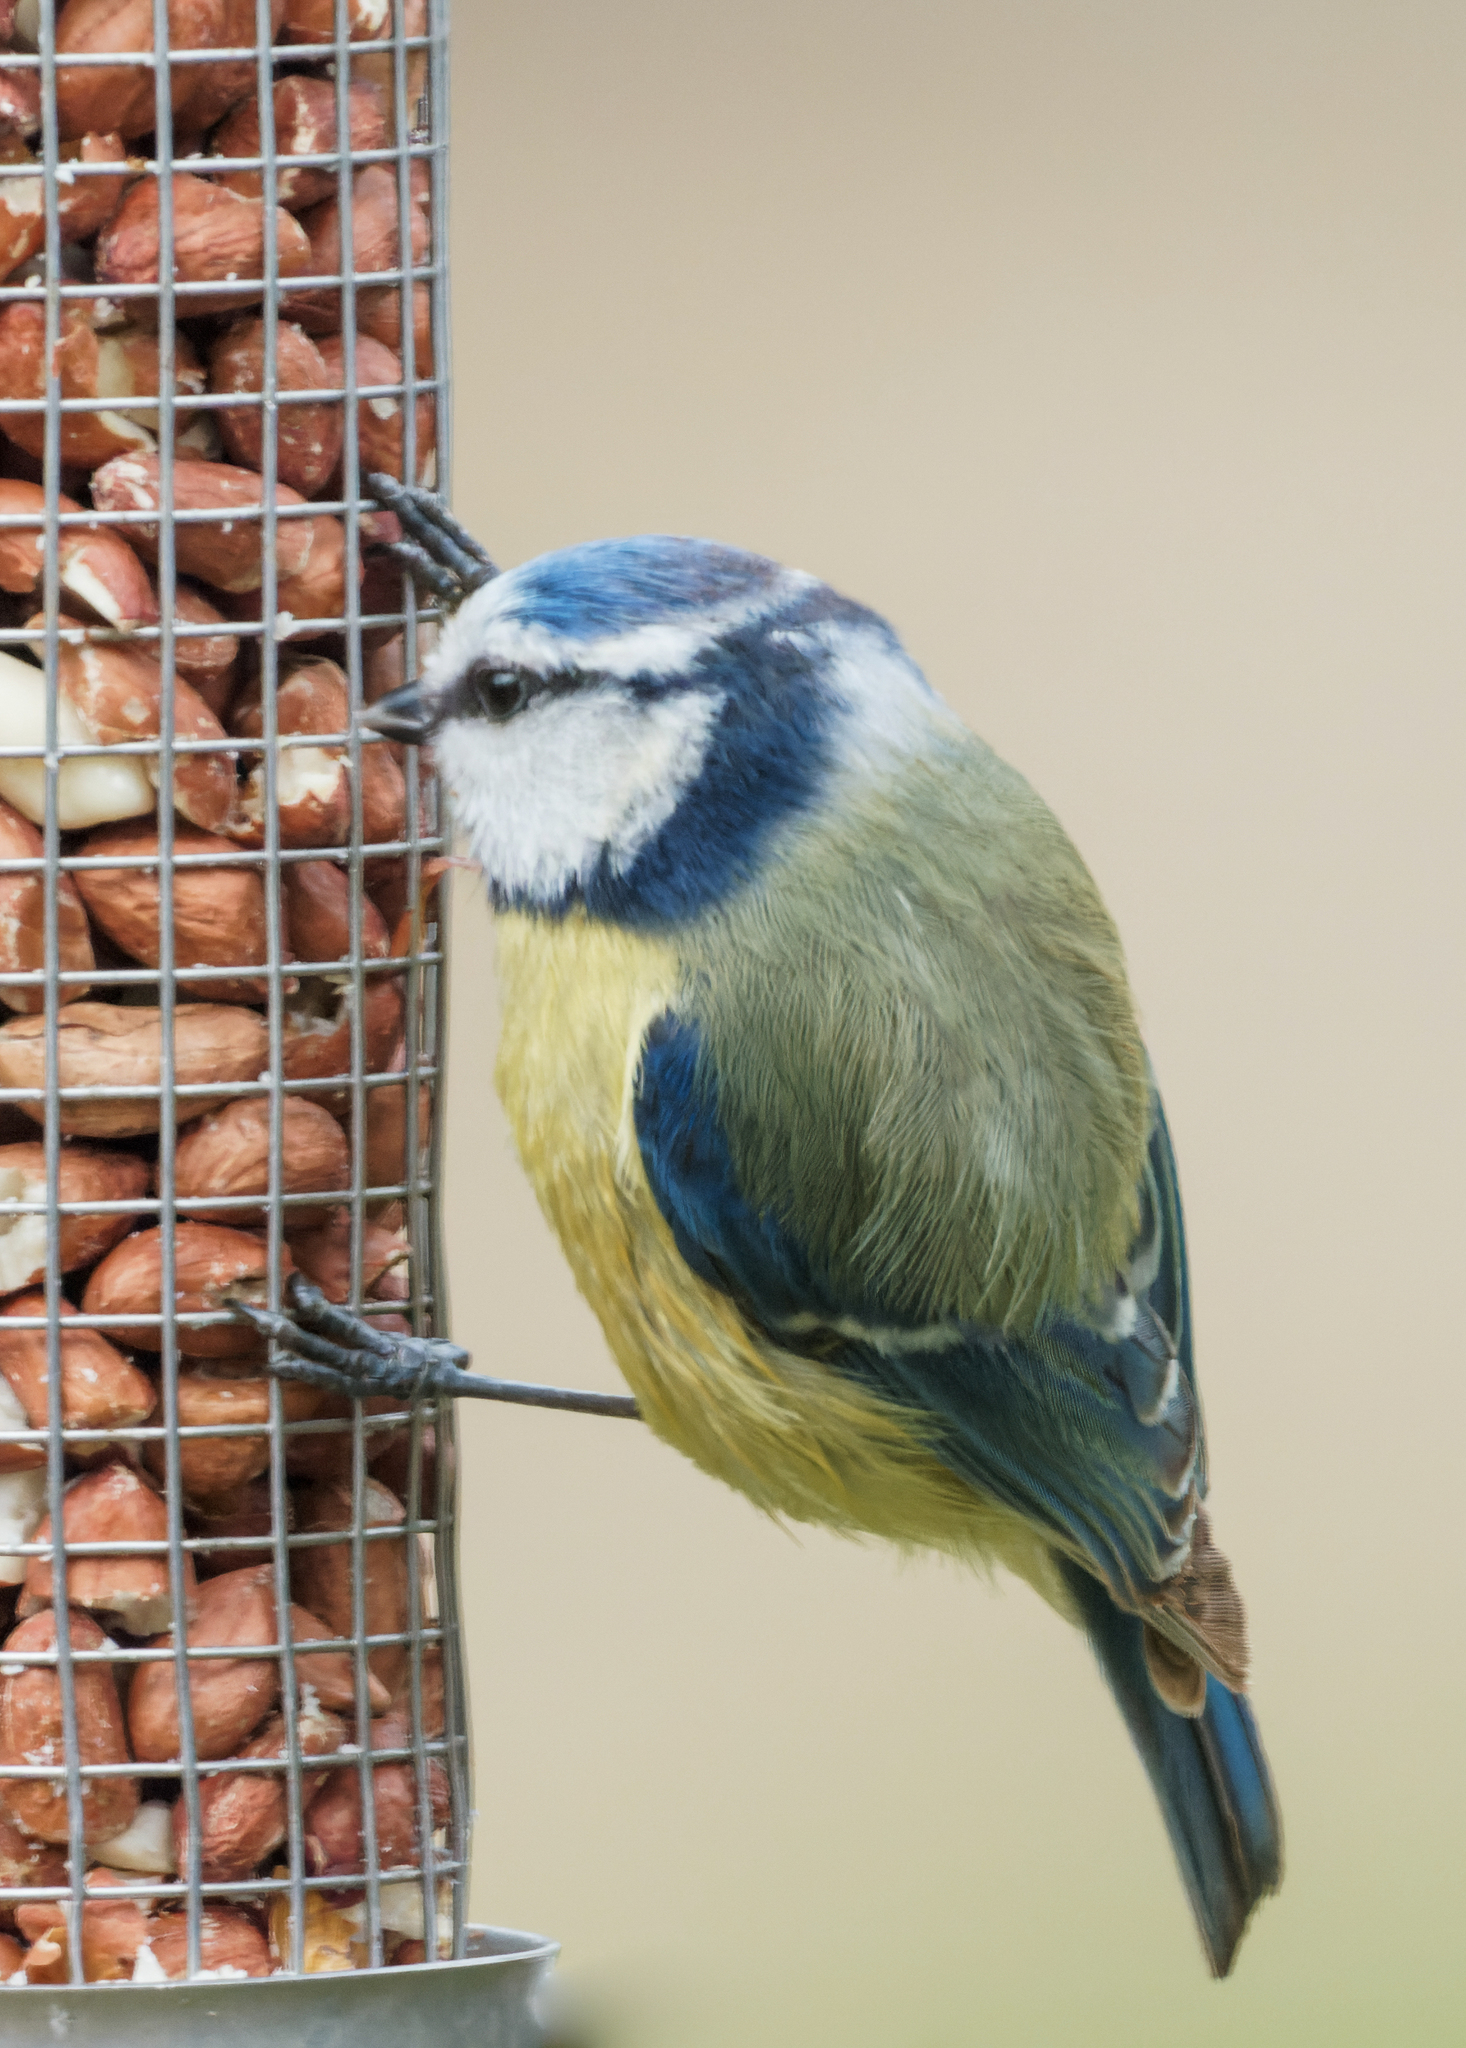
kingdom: Animalia
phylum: Chordata
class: Aves
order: Passeriformes
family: Paridae
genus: Cyanistes
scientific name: Cyanistes caeruleus
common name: Eurasian blue tit
